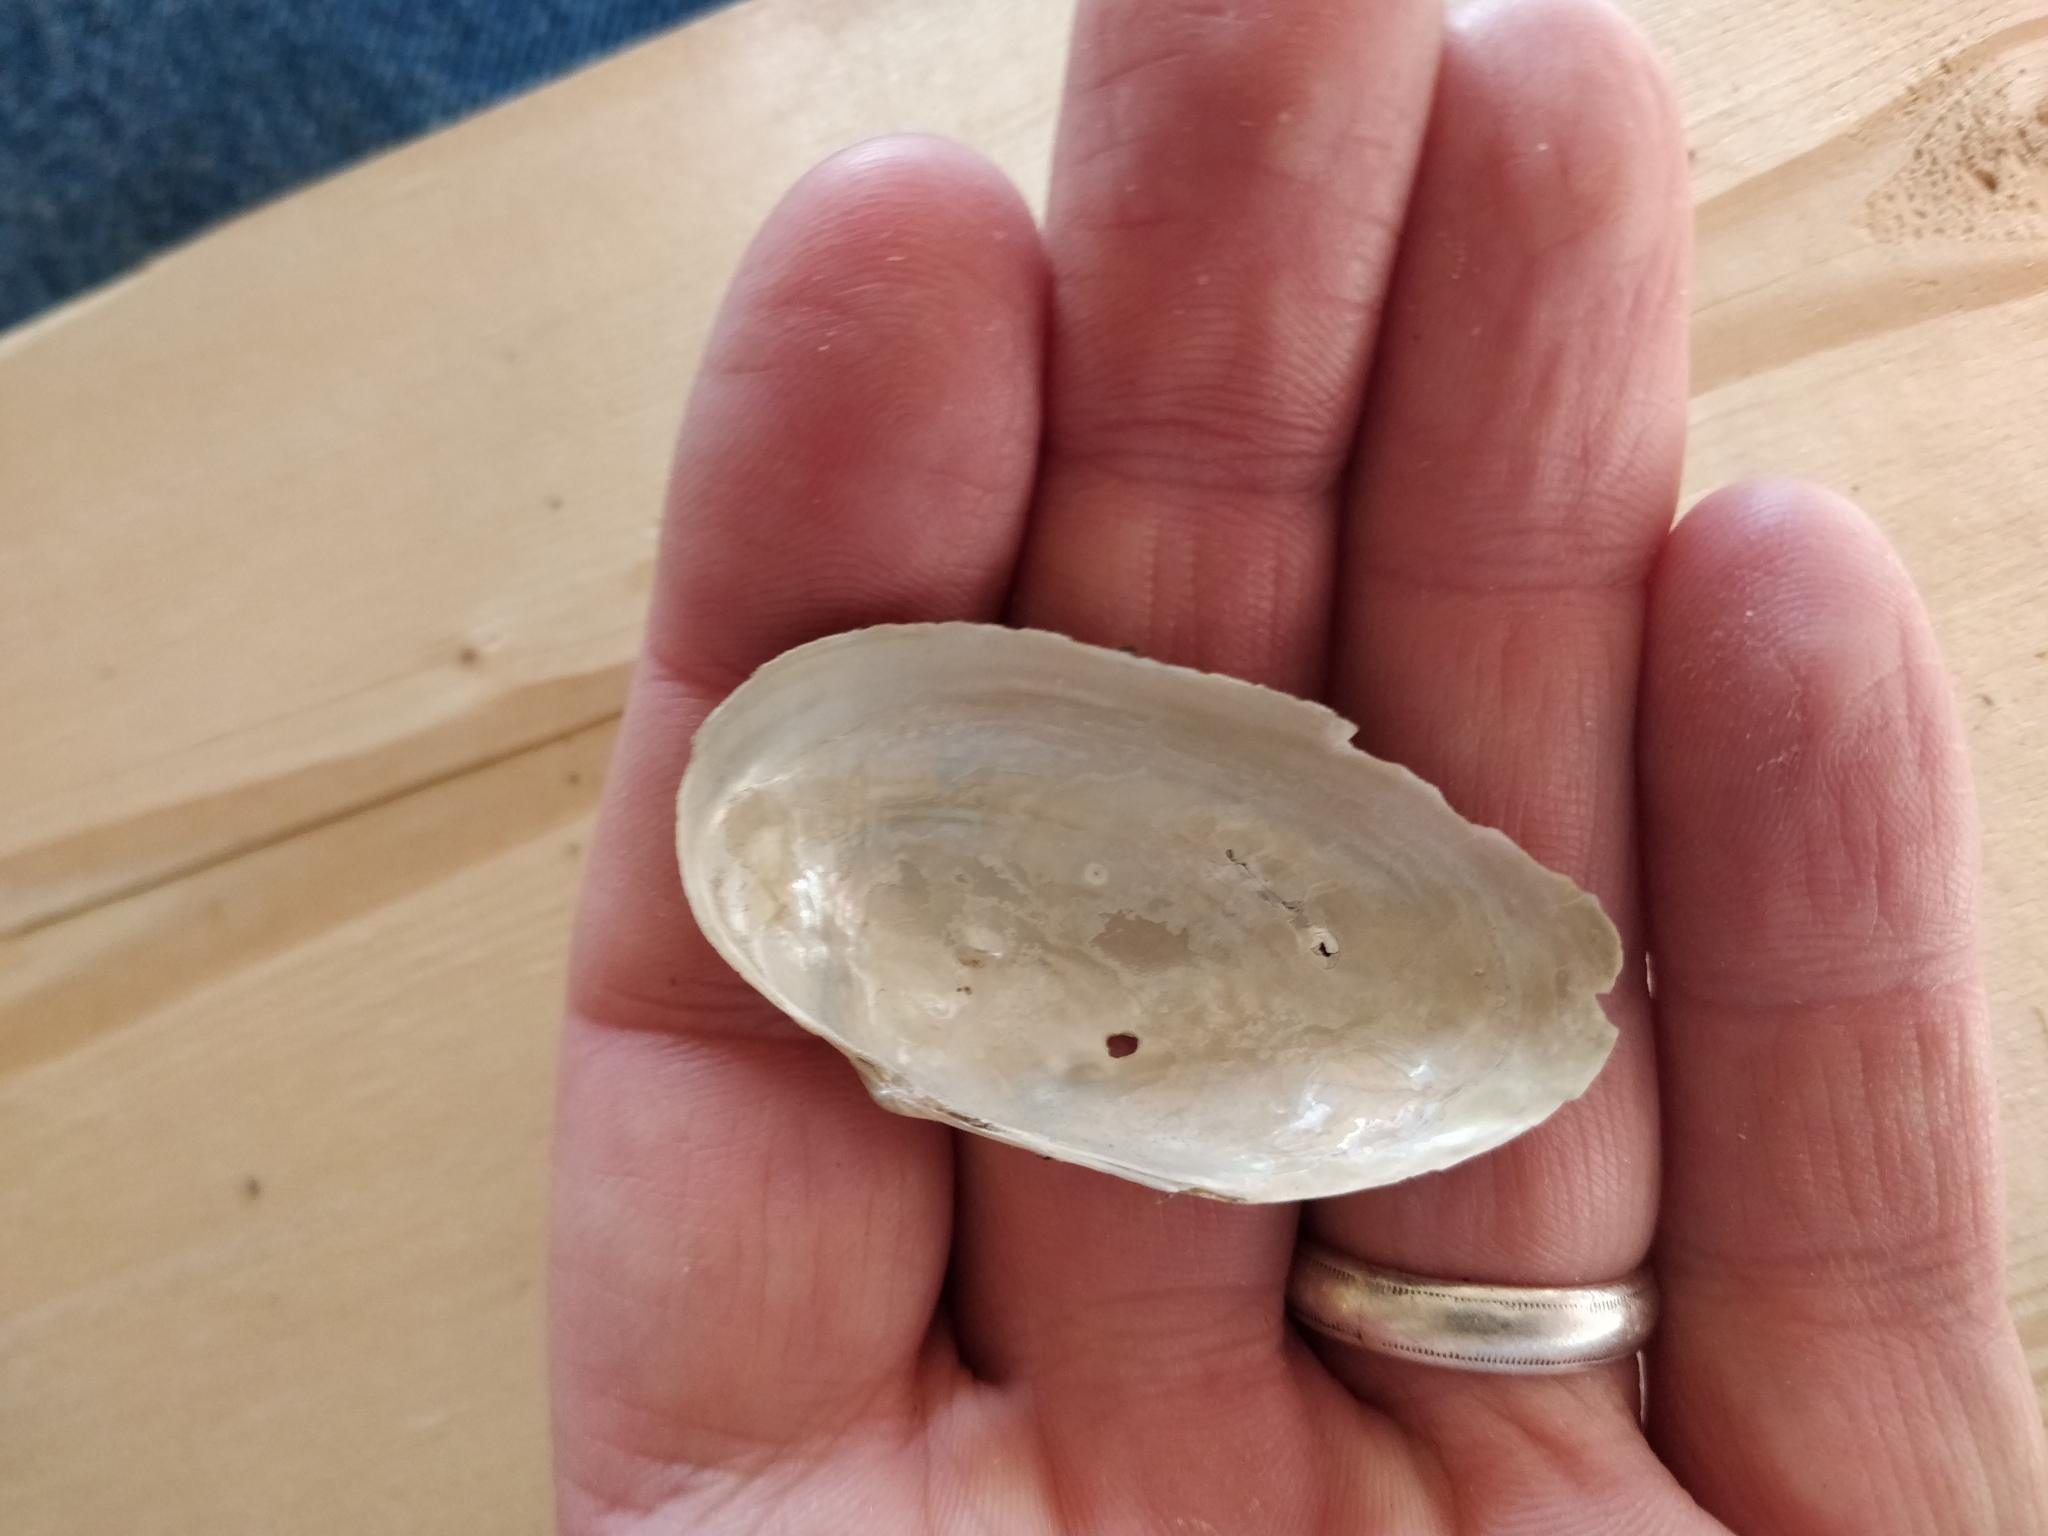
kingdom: Animalia
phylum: Mollusca
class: Bivalvia
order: Unionida
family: Unionidae
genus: Anodontoides
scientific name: Anodontoides ferussacianus
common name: Cylindrical papershell
